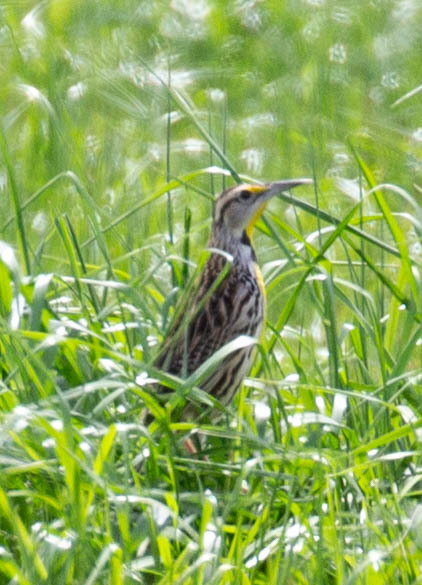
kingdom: Animalia
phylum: Chordata
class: Aves
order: Passeriformes
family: Icteridae
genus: Sturnella
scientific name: Sturnella magna
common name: Eastern meadowlark
